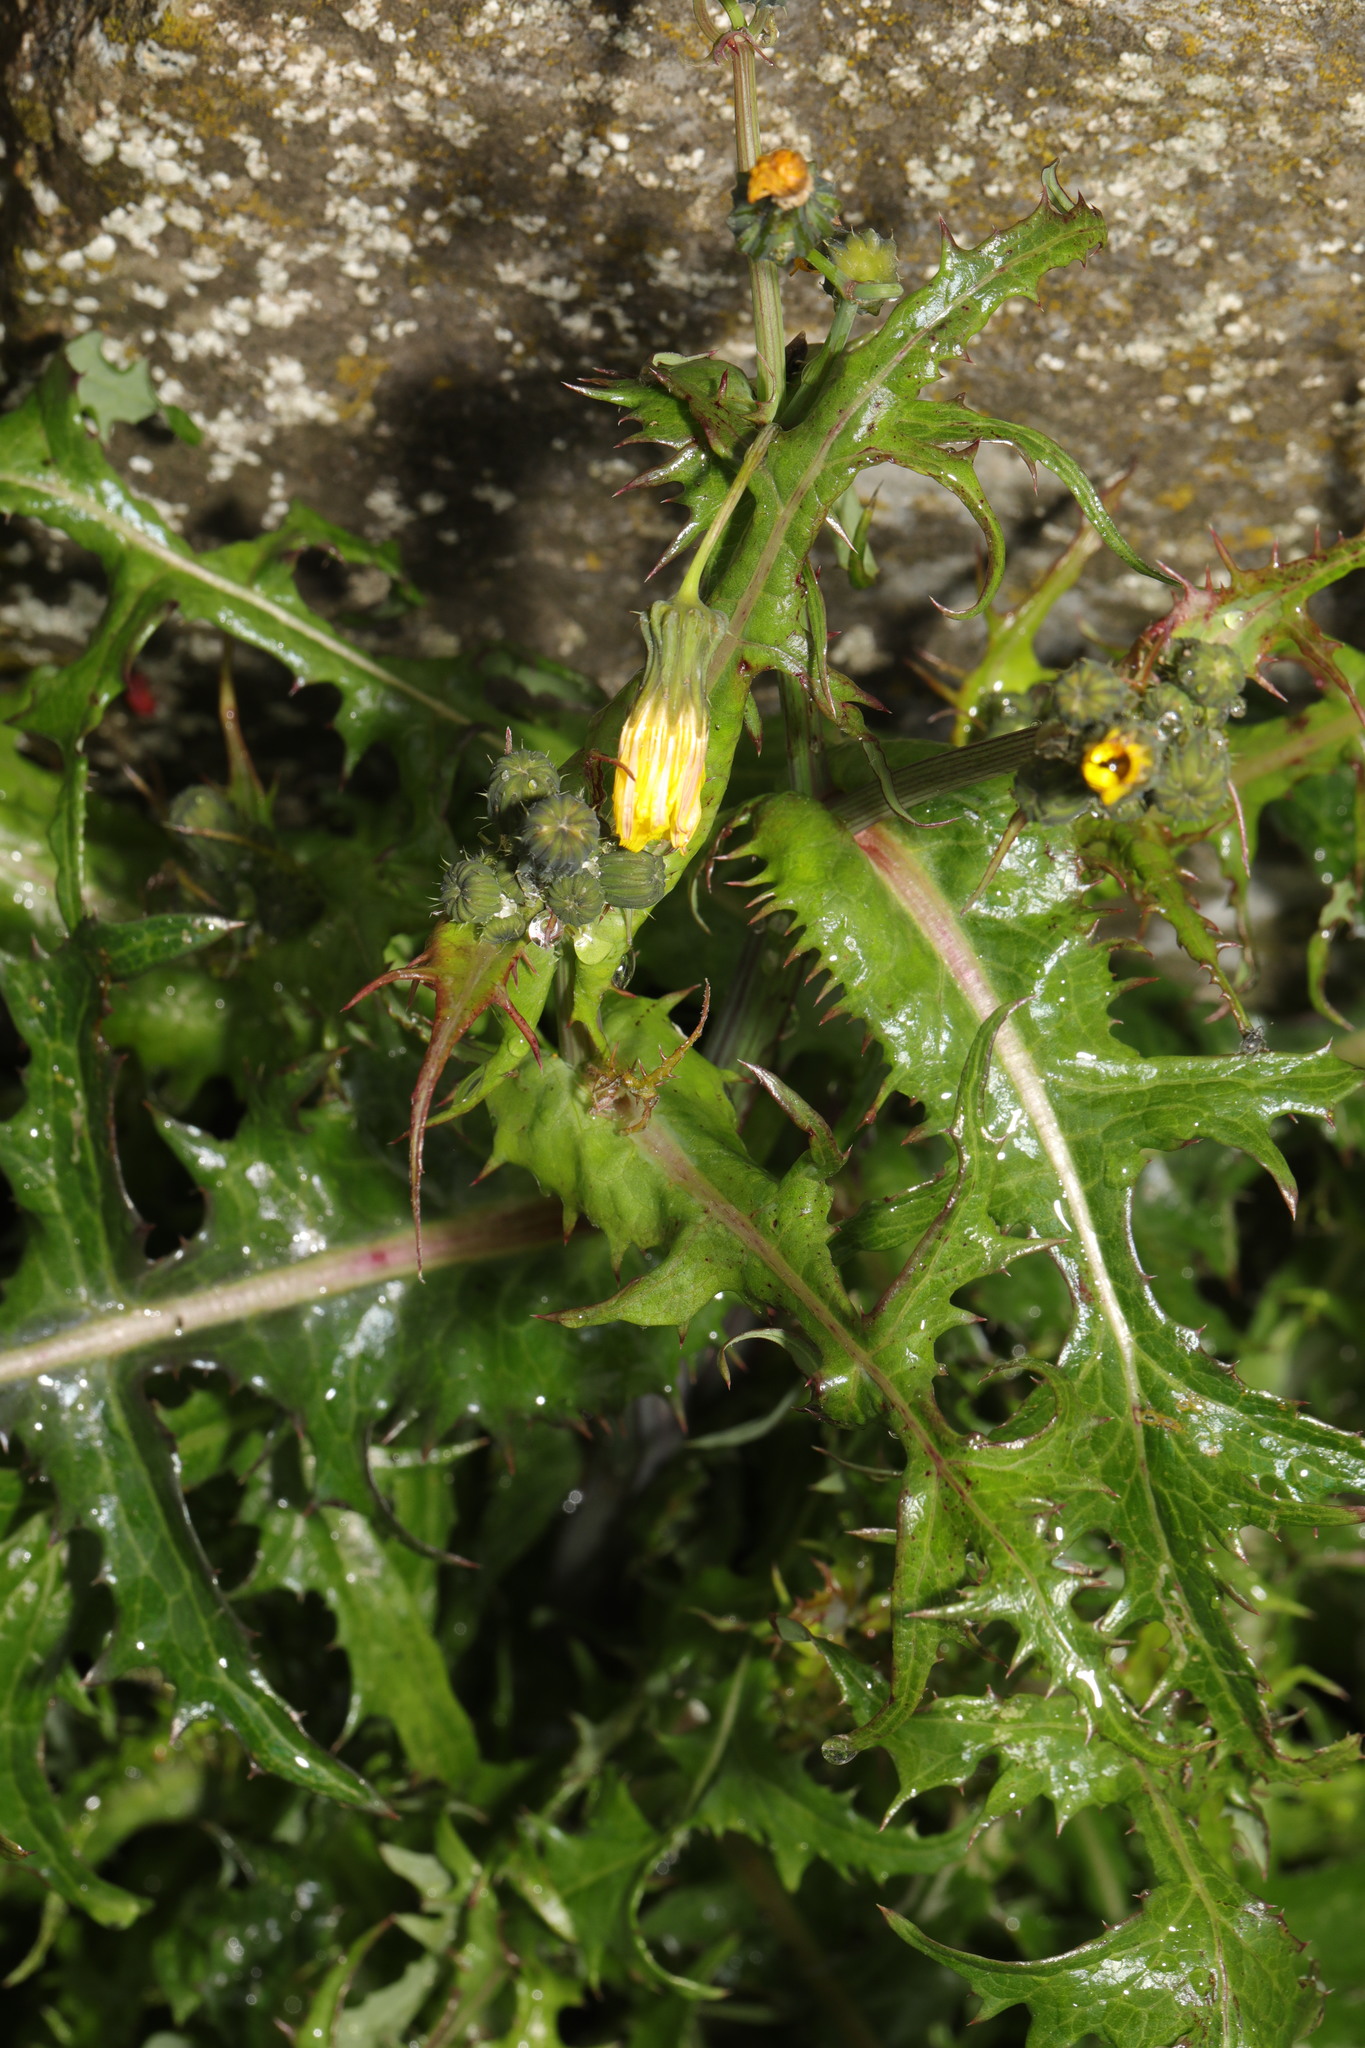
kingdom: Plantae
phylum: Tracheophyta
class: Magnoliopsida
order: Asterales
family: Asteraceae
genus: Sonchus
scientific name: Sonchus asper
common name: Prickly sow-thistle
